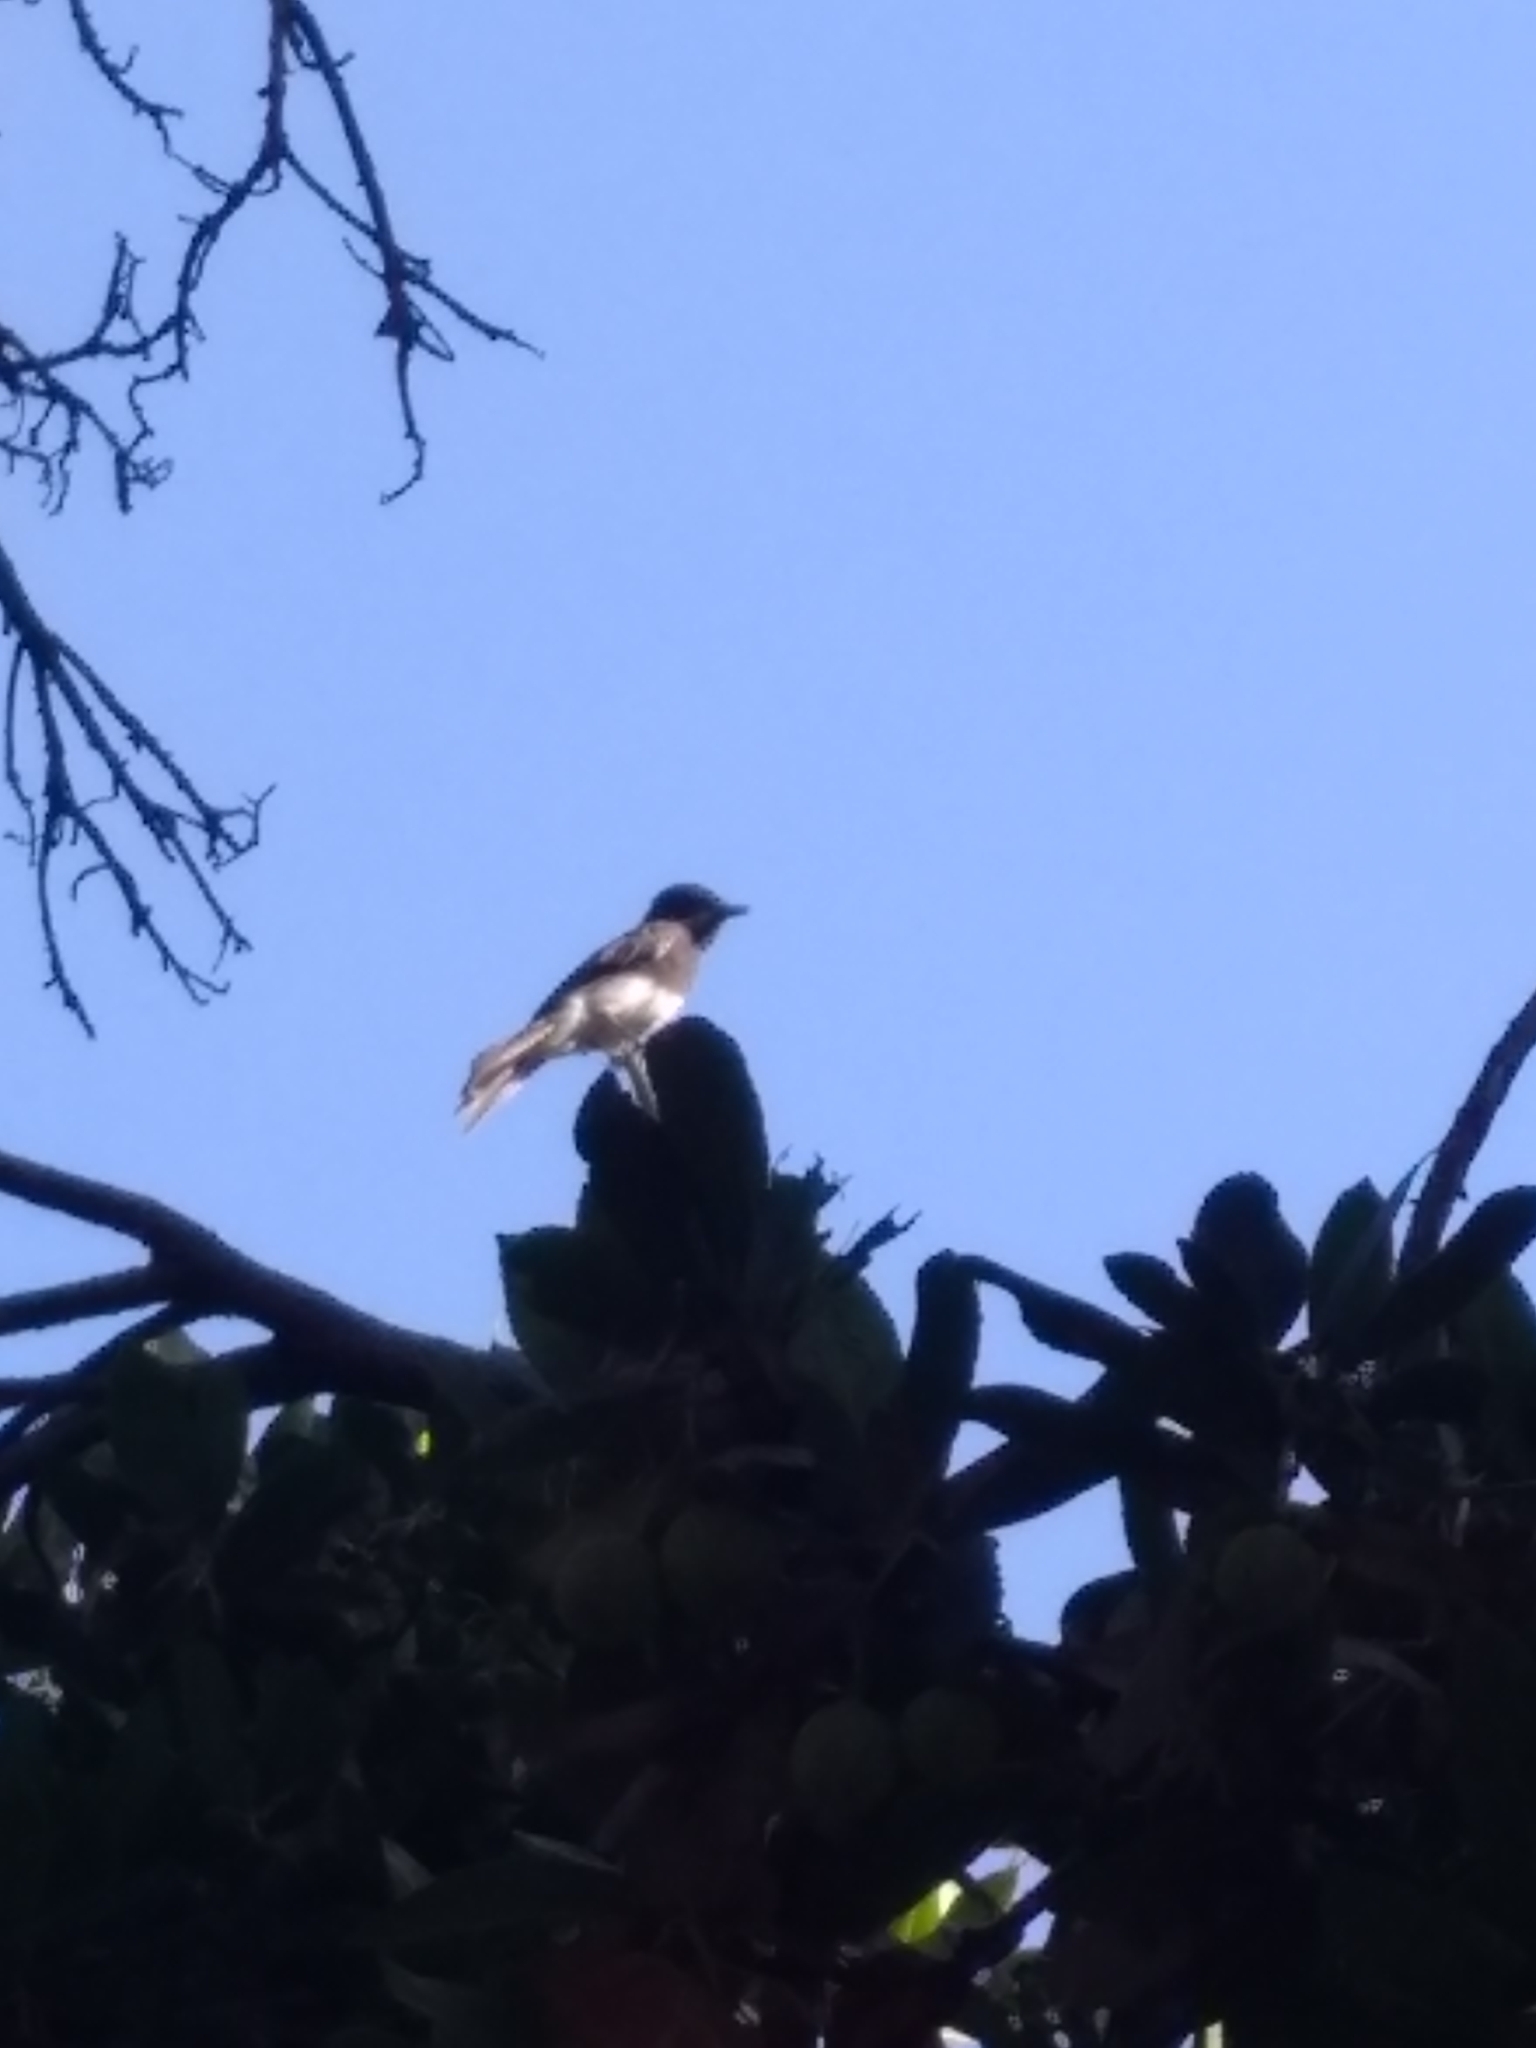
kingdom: Animalia
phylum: Chordata
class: Aves
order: Passeriformes
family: Tyrannidae
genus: Sayornis
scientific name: Sayornis nigricans
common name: Black phoebe
